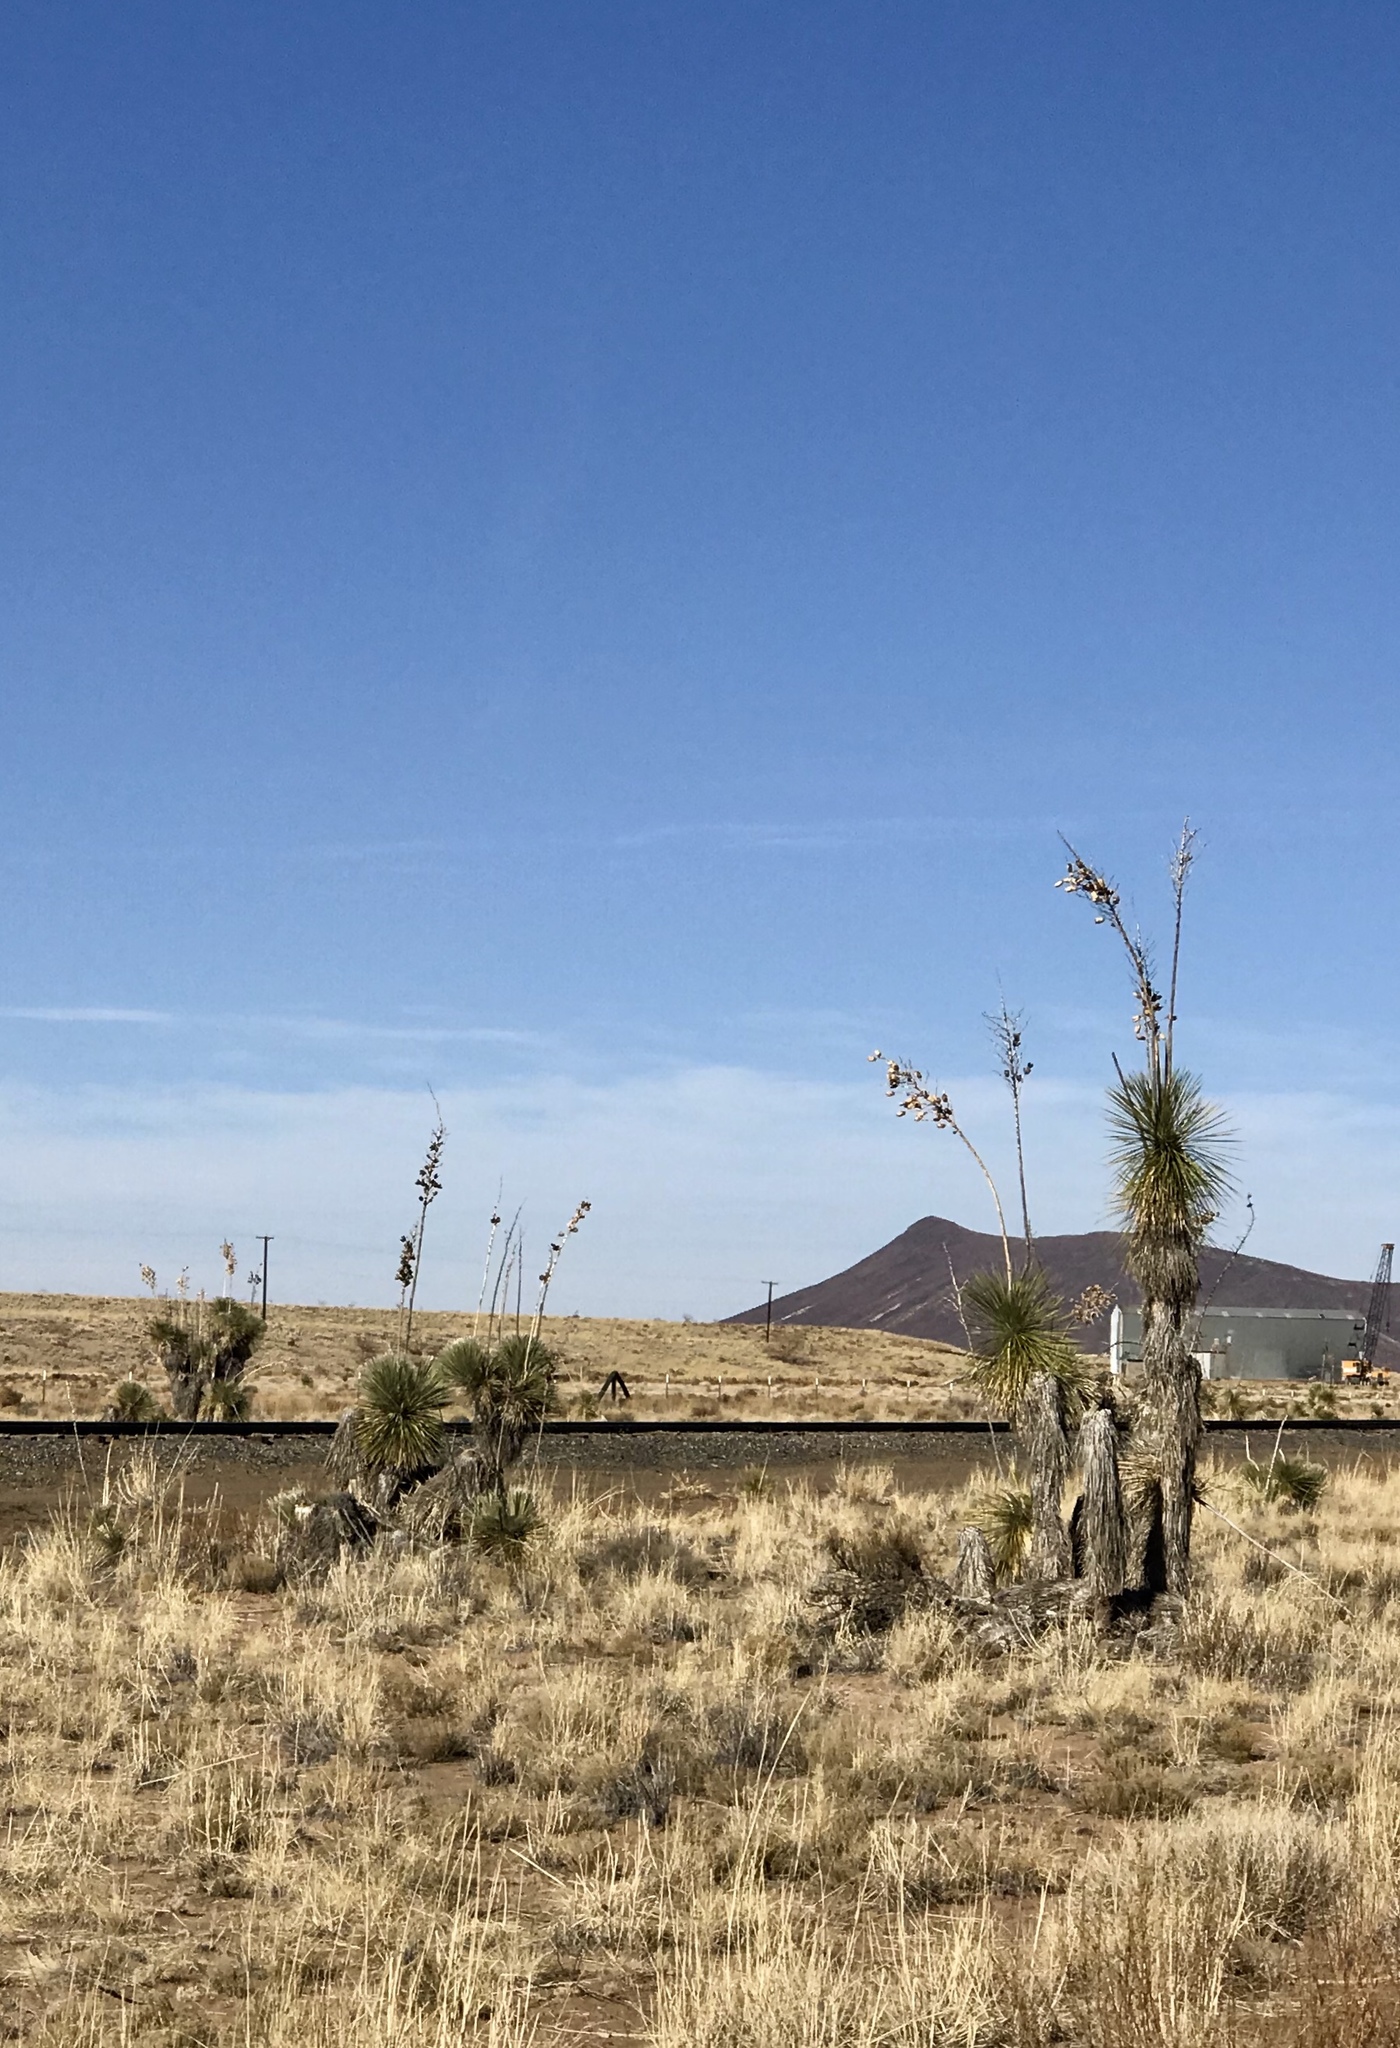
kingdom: Plantae
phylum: Tracheophyta
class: Liliopsida
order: Asparagales
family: Asparagaceae
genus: Yucca
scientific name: Yucca elata
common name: Palmella
